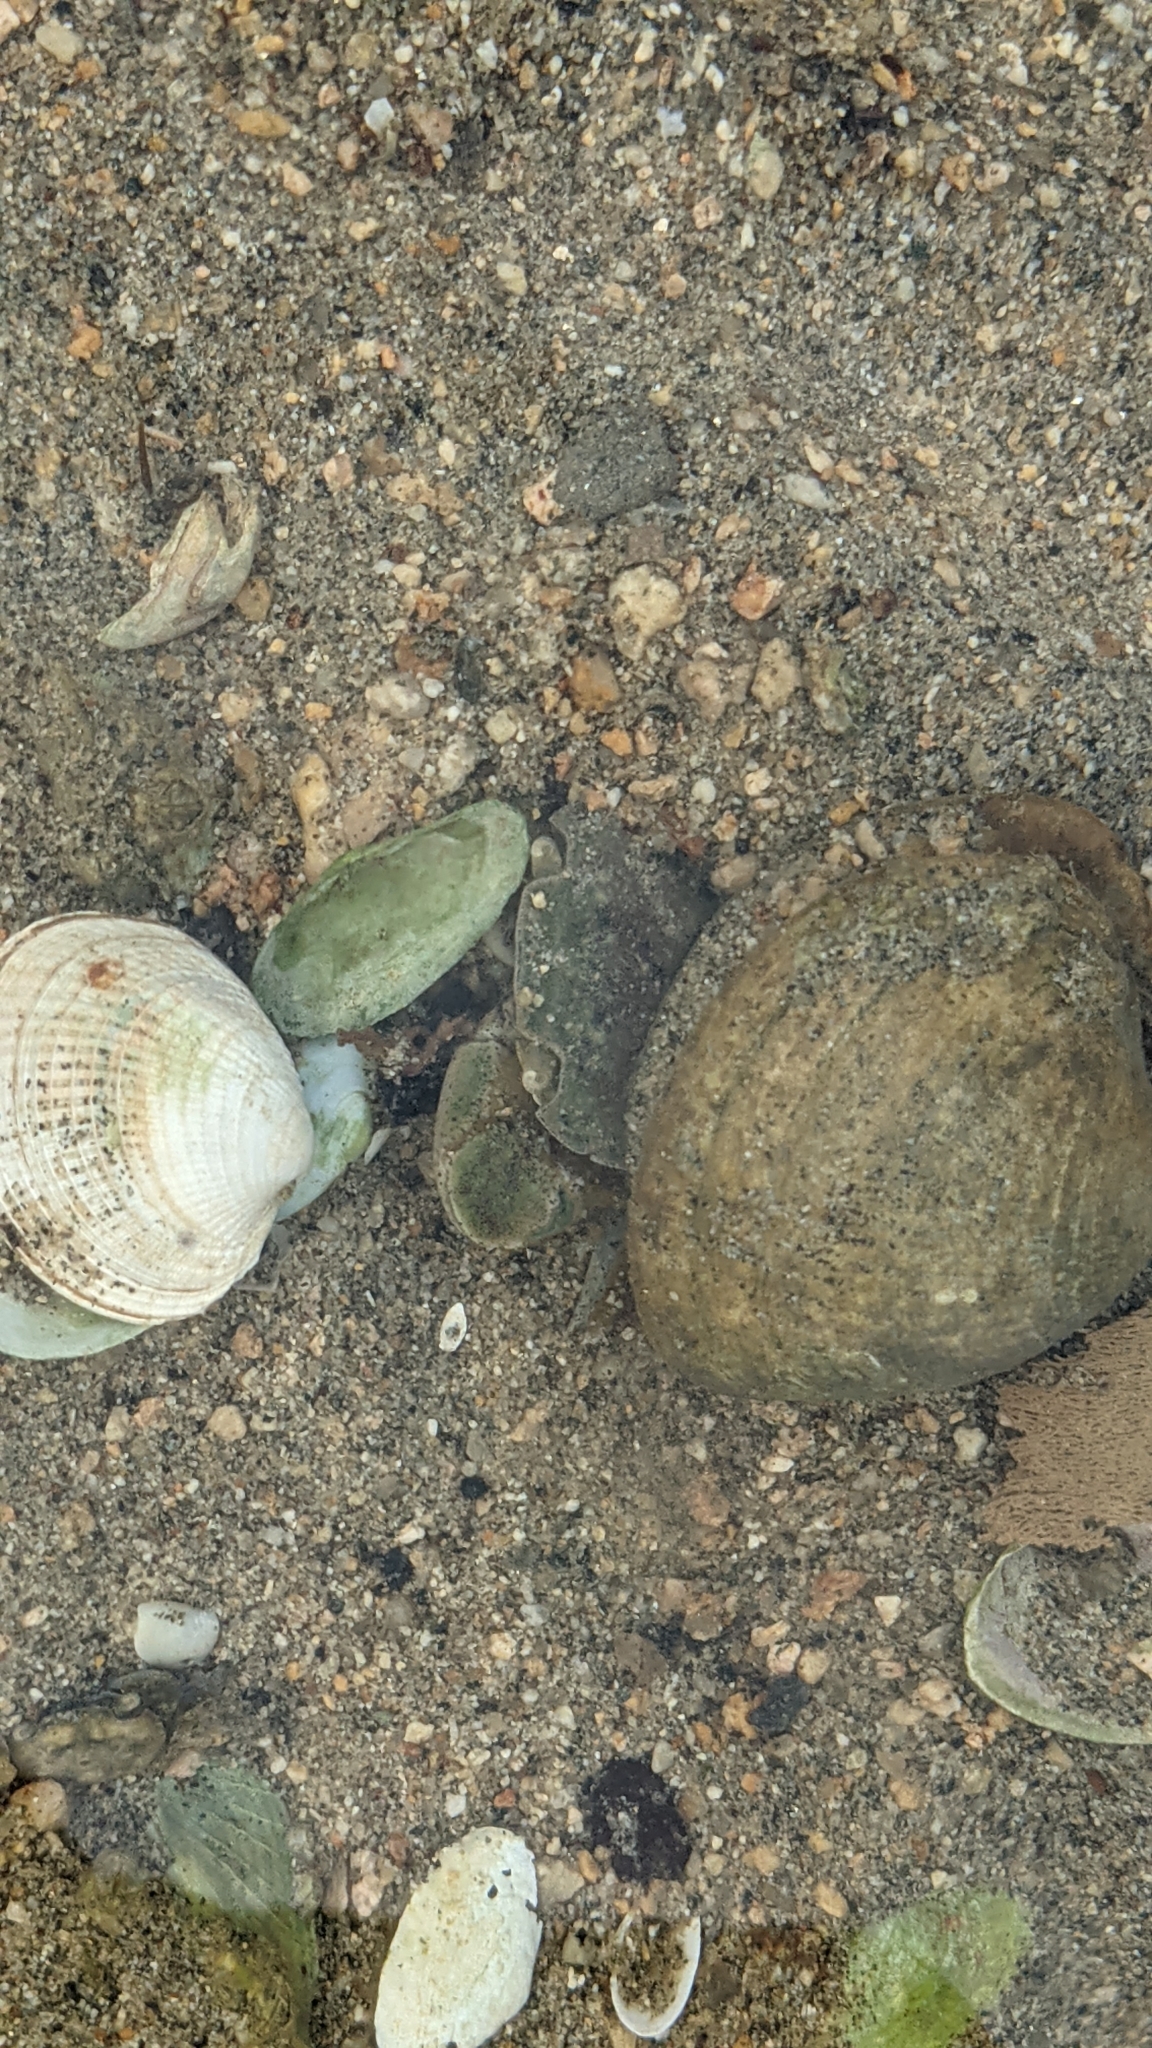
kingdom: Animalia
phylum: Arthropoda
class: Malacostraca
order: Decapoda
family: Varunidae
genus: Hemigrapsus
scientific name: Hemigrapsus crenulatus
